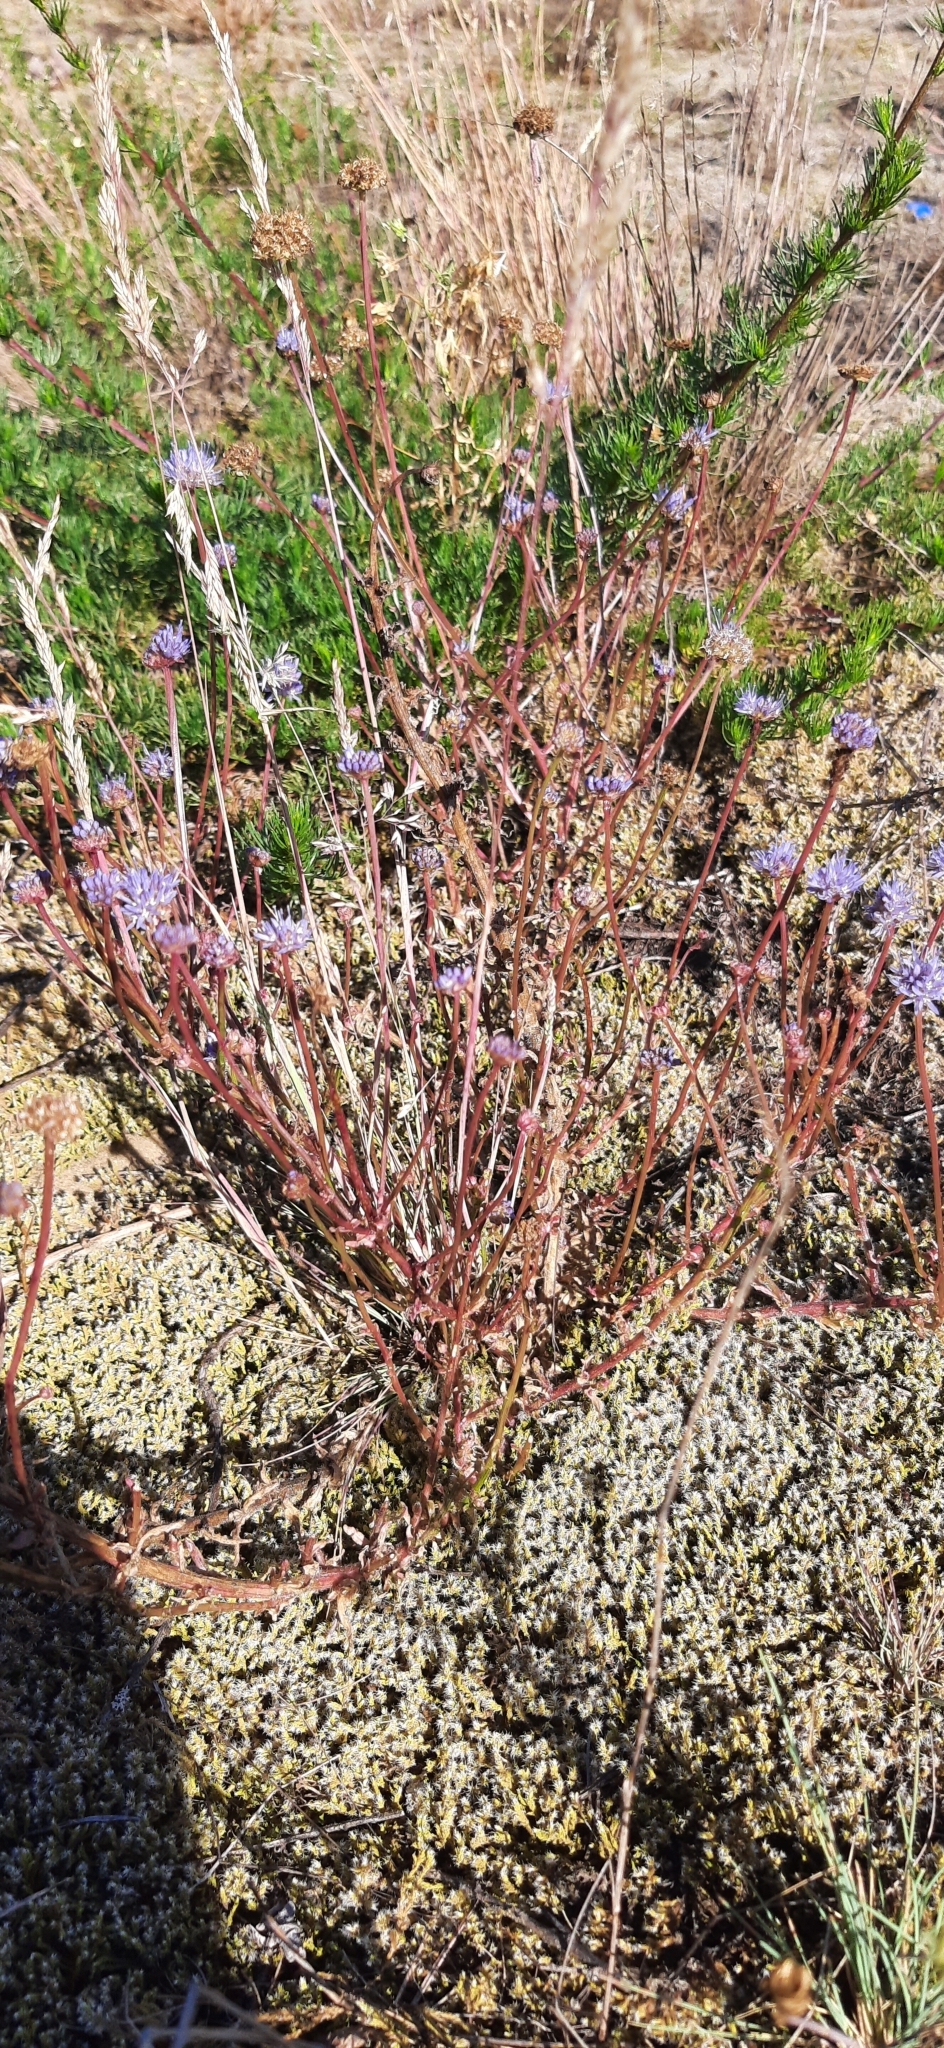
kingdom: Plantae
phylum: Tracheophyta
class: Magnoliopsida
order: Asterales
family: Campanulaceae
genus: Jasione
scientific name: Jasione montana
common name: Sheep's-bit
